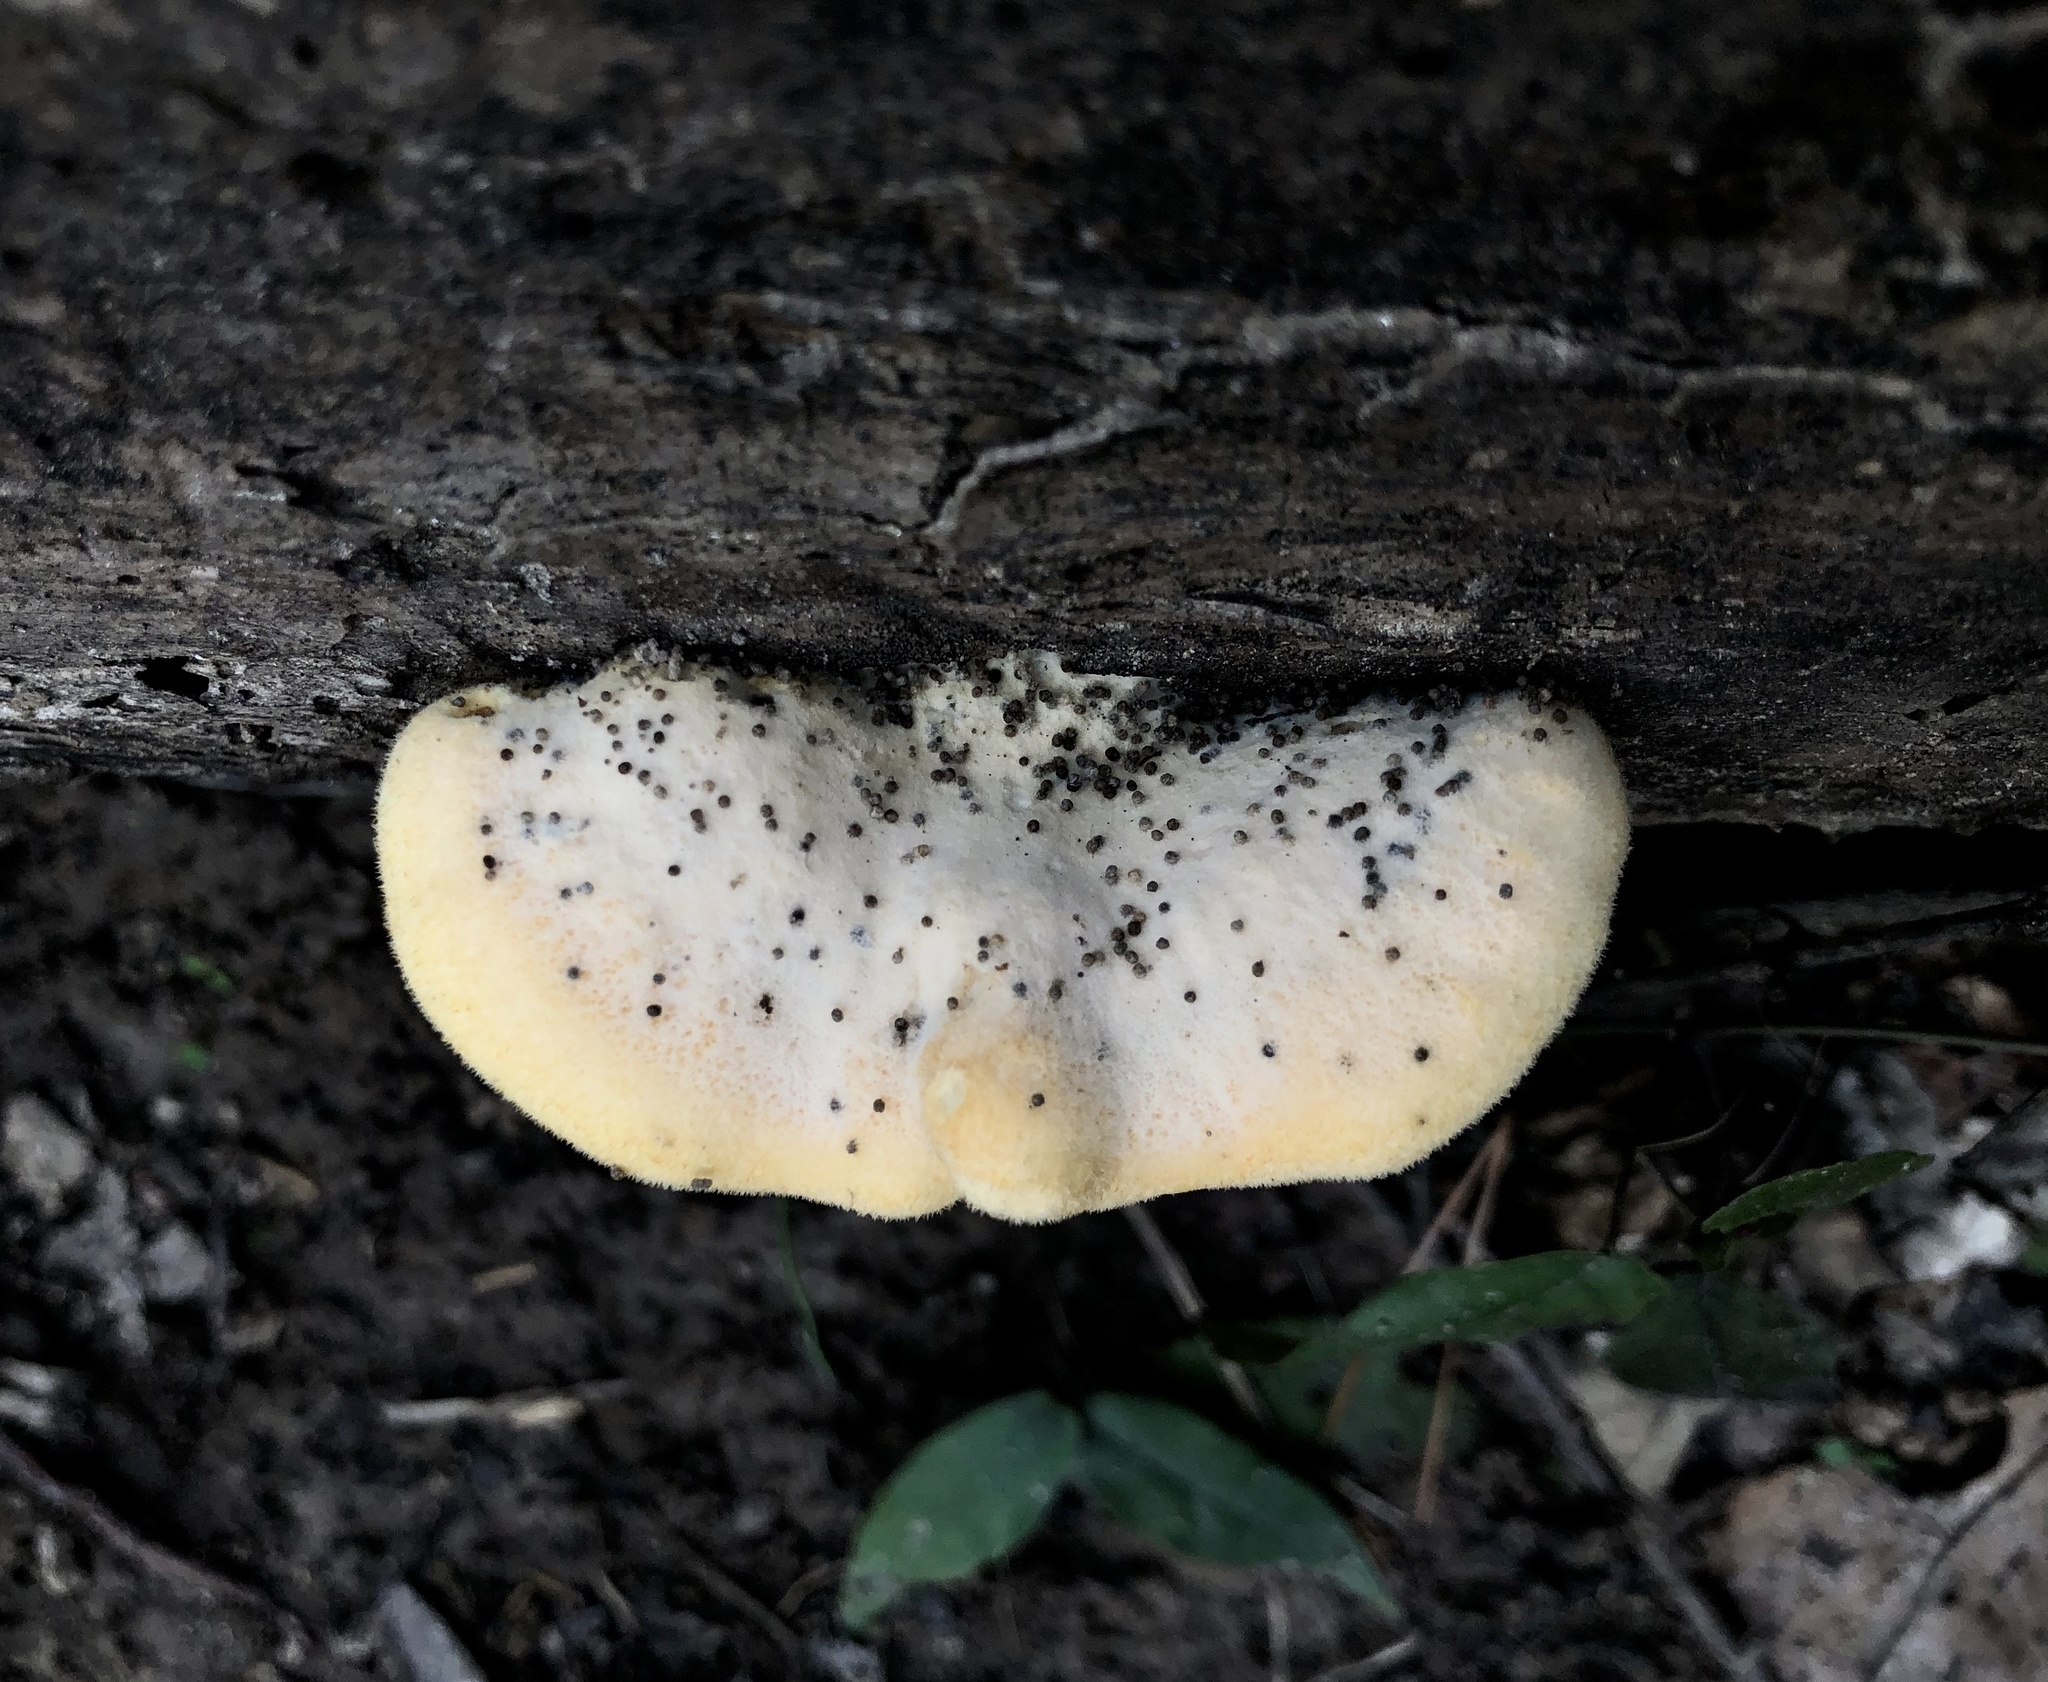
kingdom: Fungi
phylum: Basidiomycota
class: Agaricomycetes
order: Agaricales
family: Phyllotopsidaceae
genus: Phyllotopsis
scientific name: Phyllotopsis nidulans
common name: Orange mock oyster
